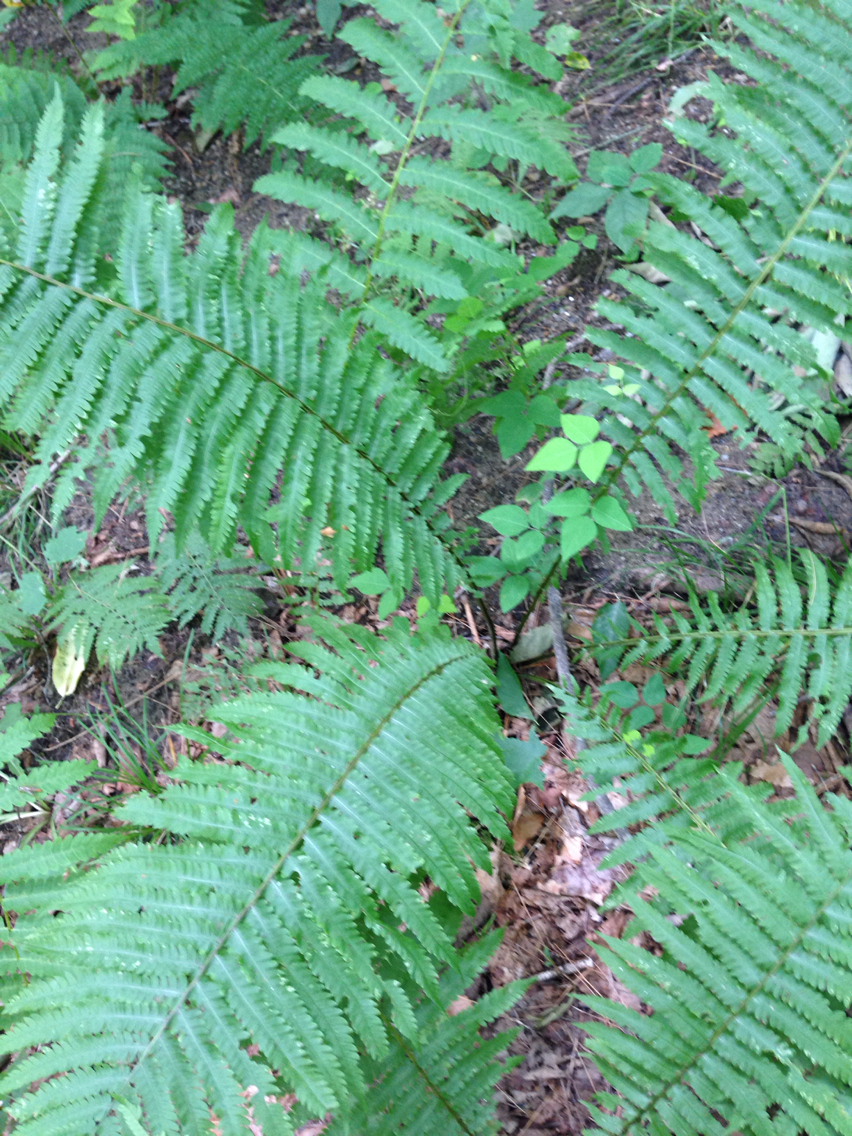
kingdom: Plantae
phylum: Tracheophyta
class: Polypodiopsida
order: Polypodiales
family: Onocleaceae
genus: Matteuccia
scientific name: Matteuccia struthiopteris
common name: Ostrich fern
